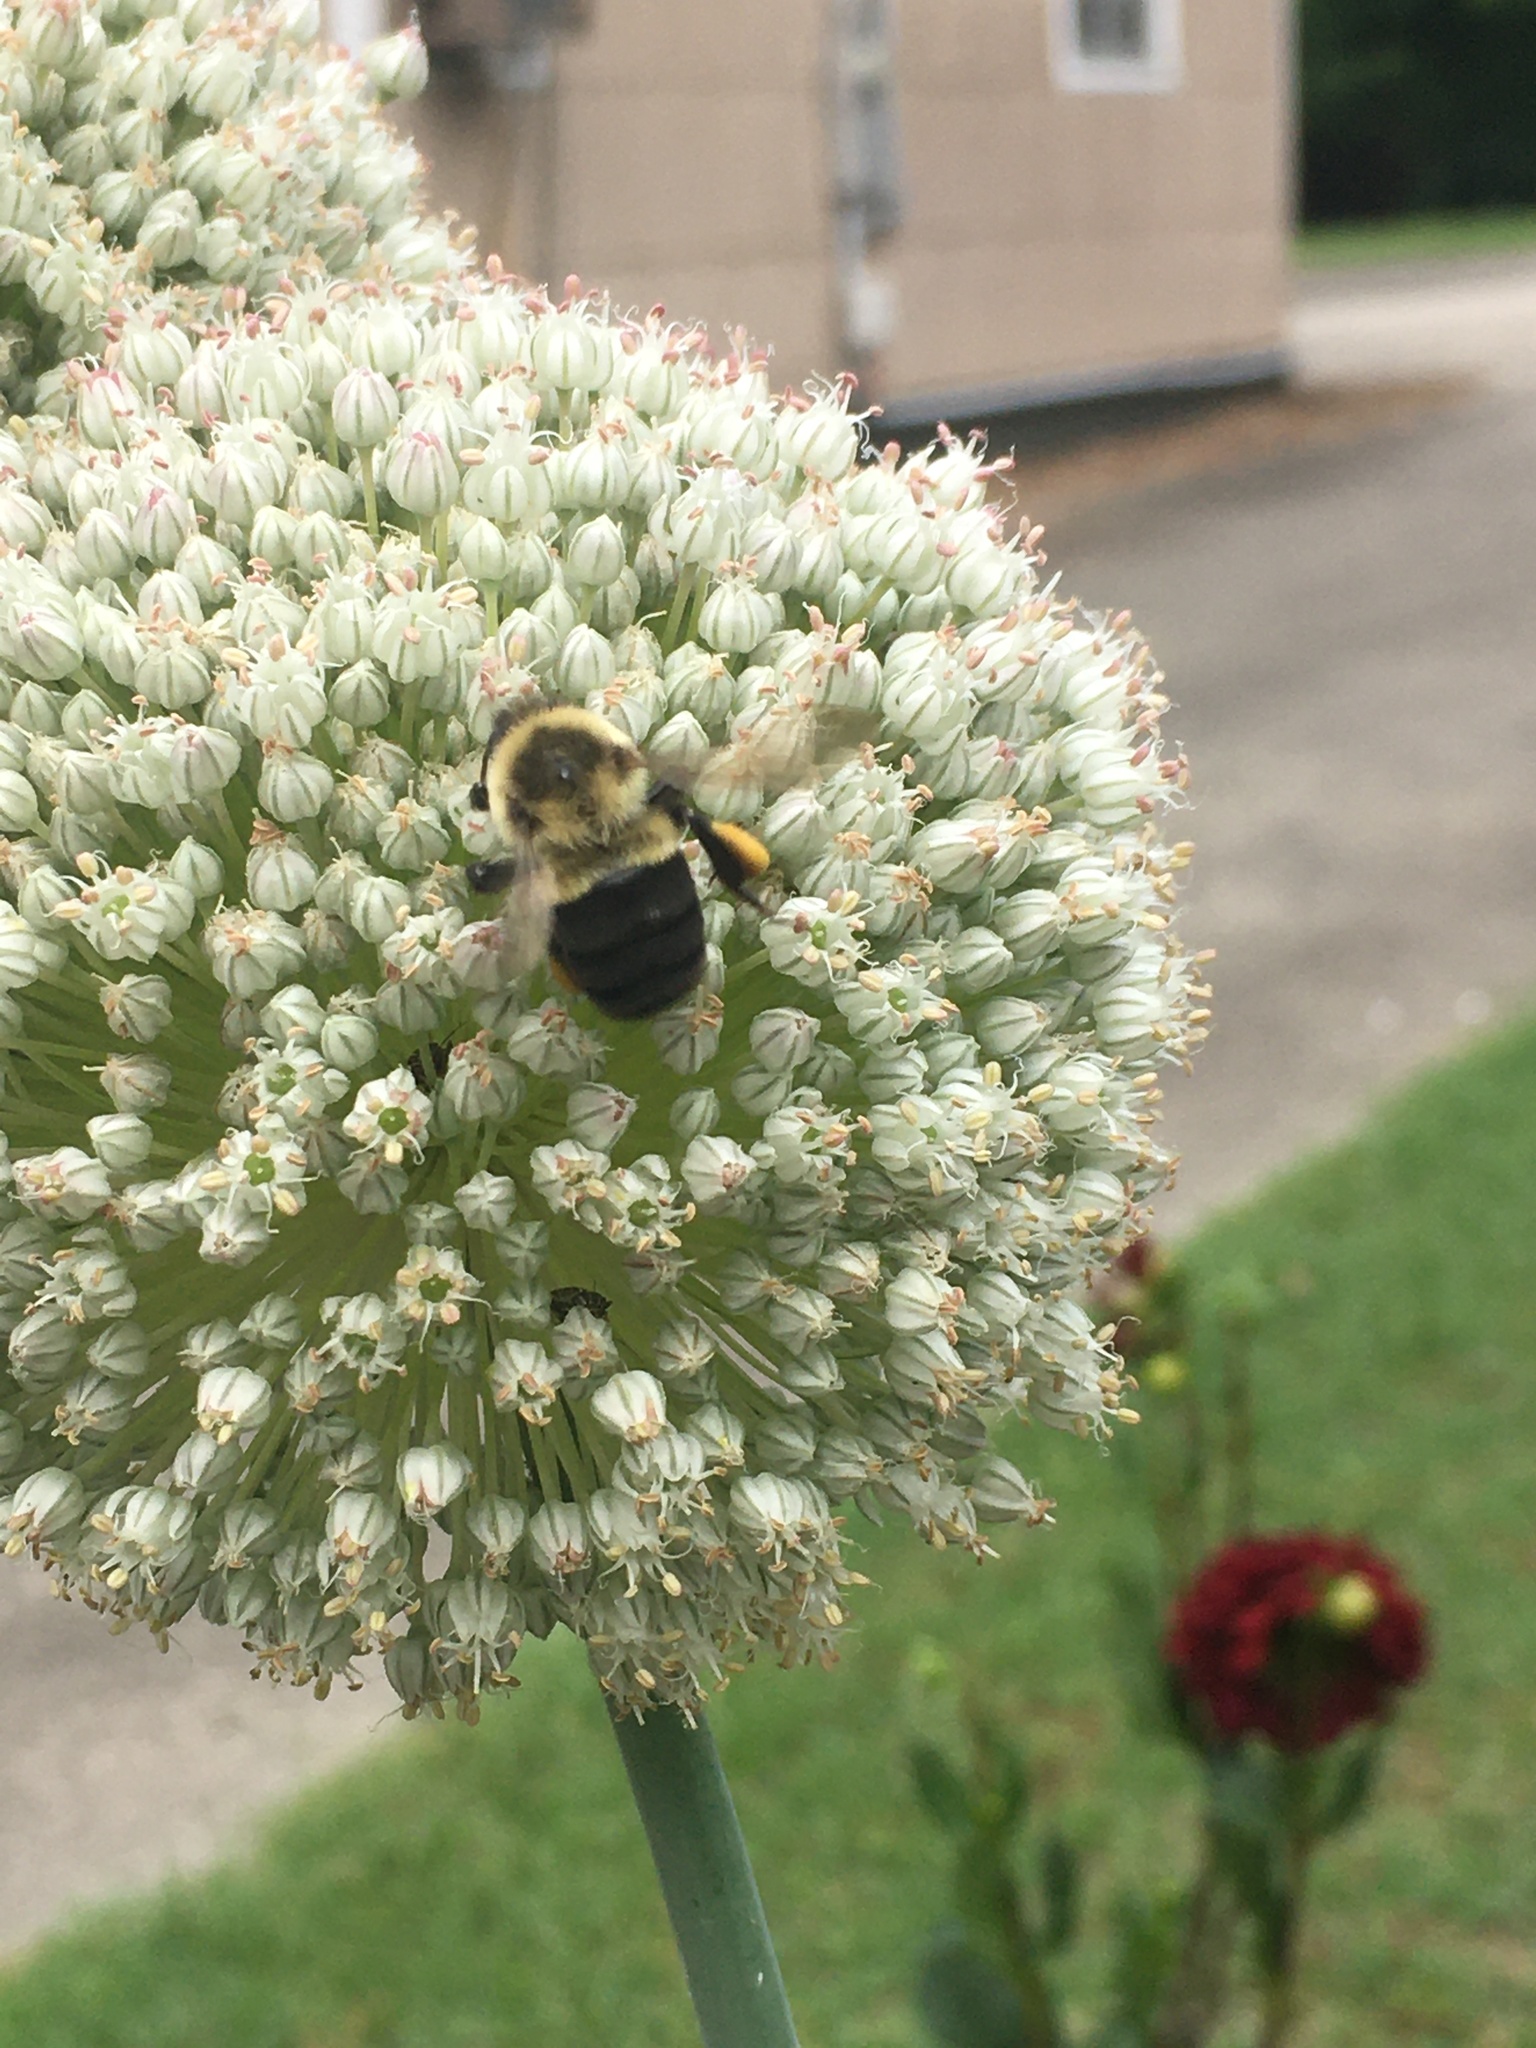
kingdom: Animalia
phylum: Arthropoda
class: Insecta
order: Hymenoptera
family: Apidae
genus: Bombus
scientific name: Bombus impatiens
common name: Common eastern bumble bee
